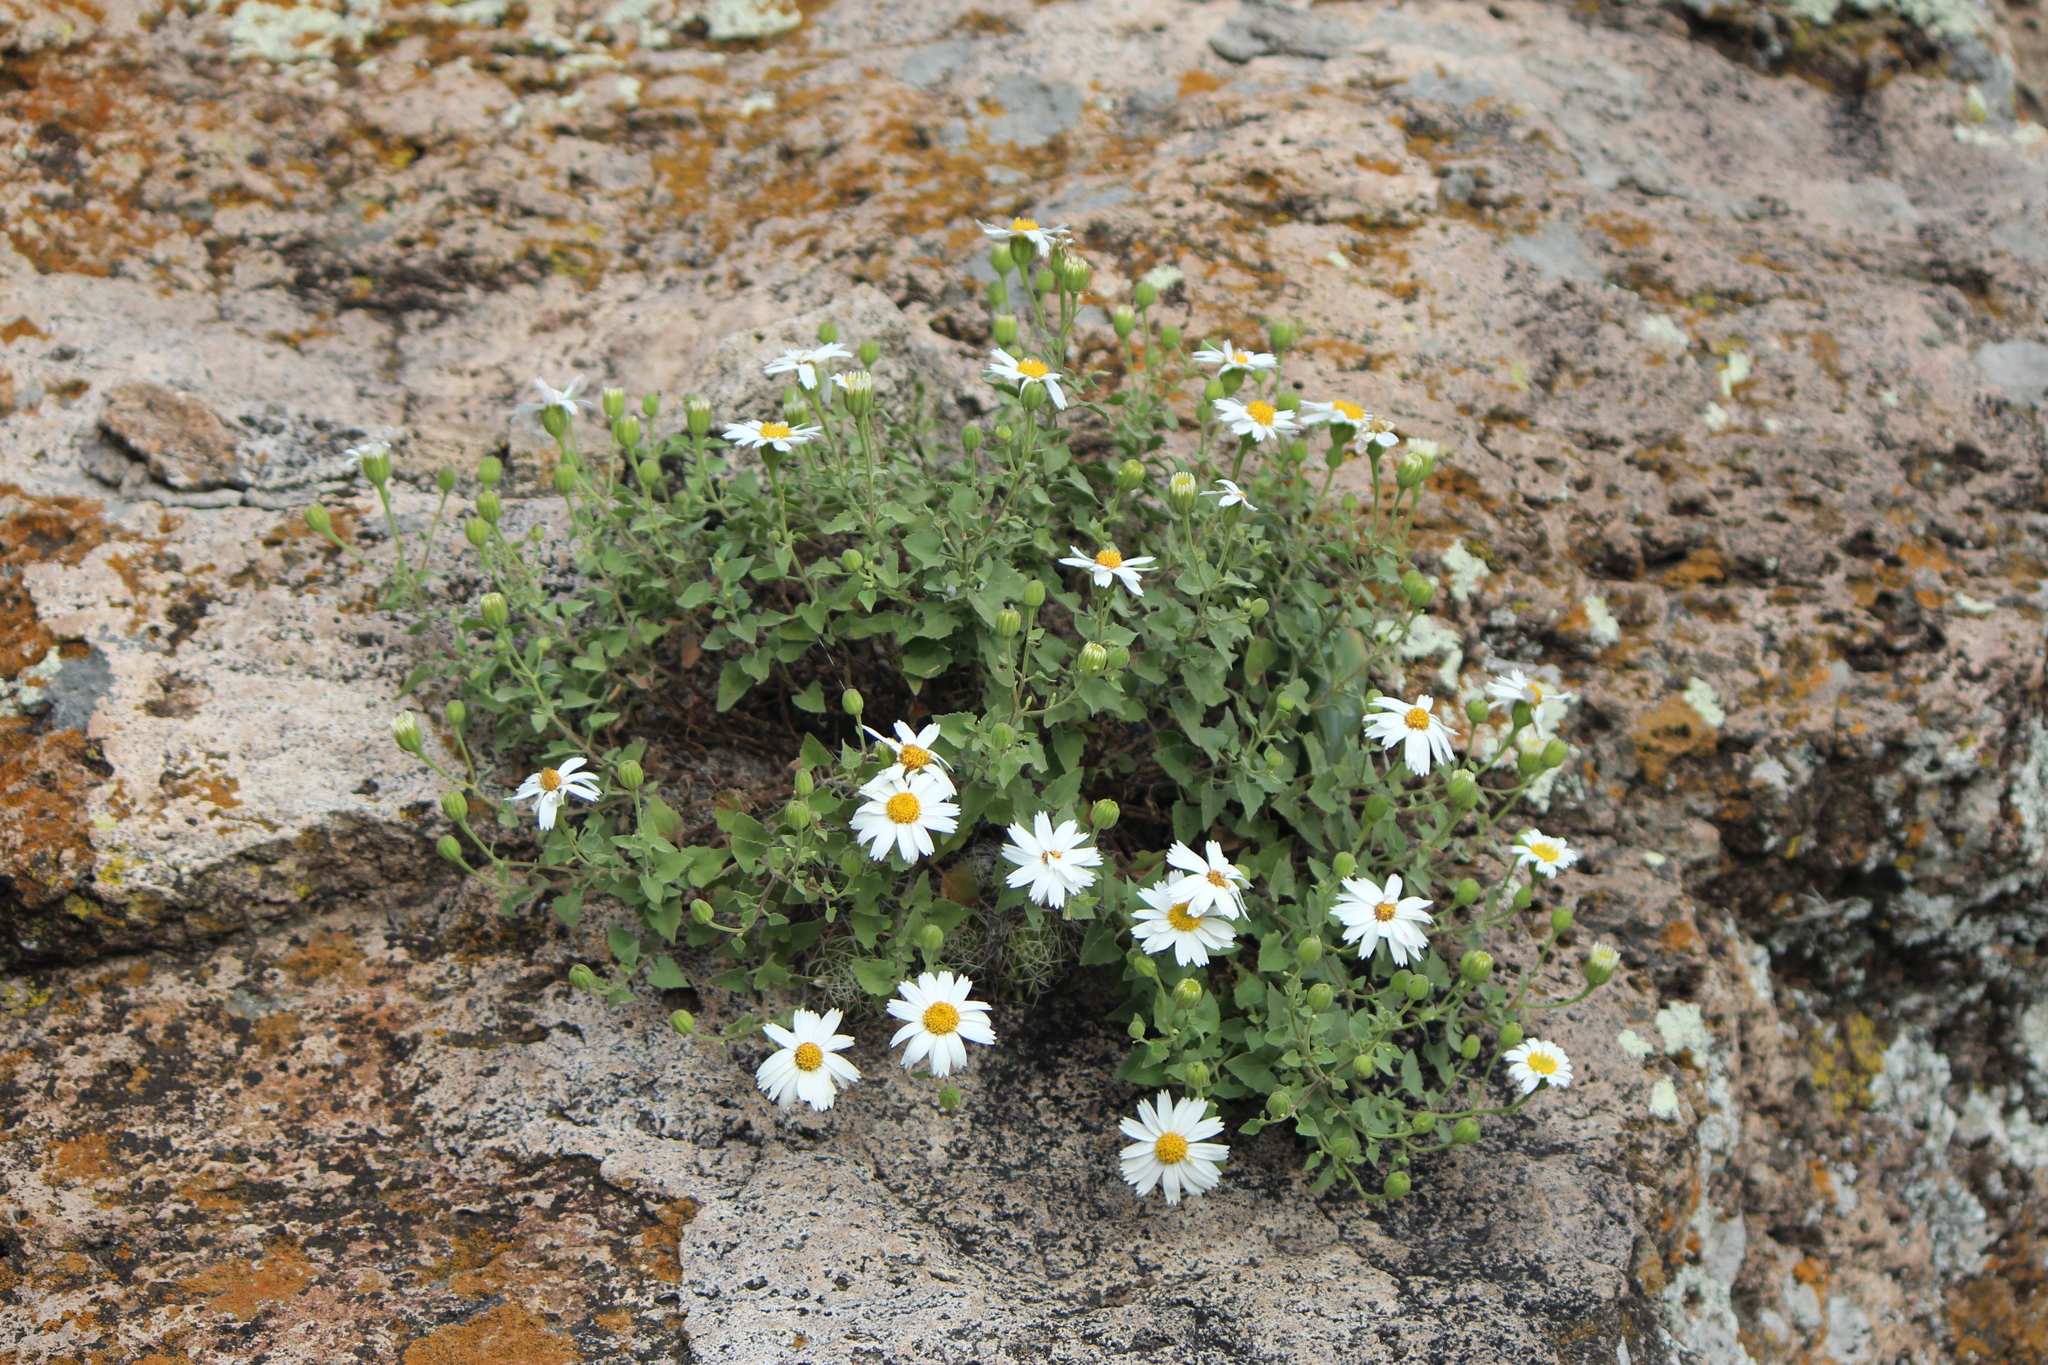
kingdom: Plantae
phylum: Tracheophyta
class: Magnoliopsida
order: Asterales
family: Asteraceae
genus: Eutetras
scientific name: Eutetras pringlei
